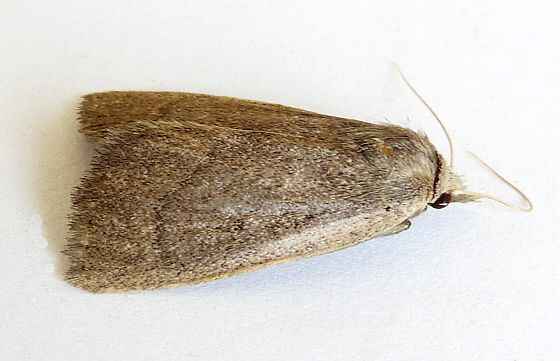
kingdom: Animalia
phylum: Arthropoda
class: Insecta
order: Lepidoptera
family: Erebidae
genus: Gabara
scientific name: Gabara obscura
